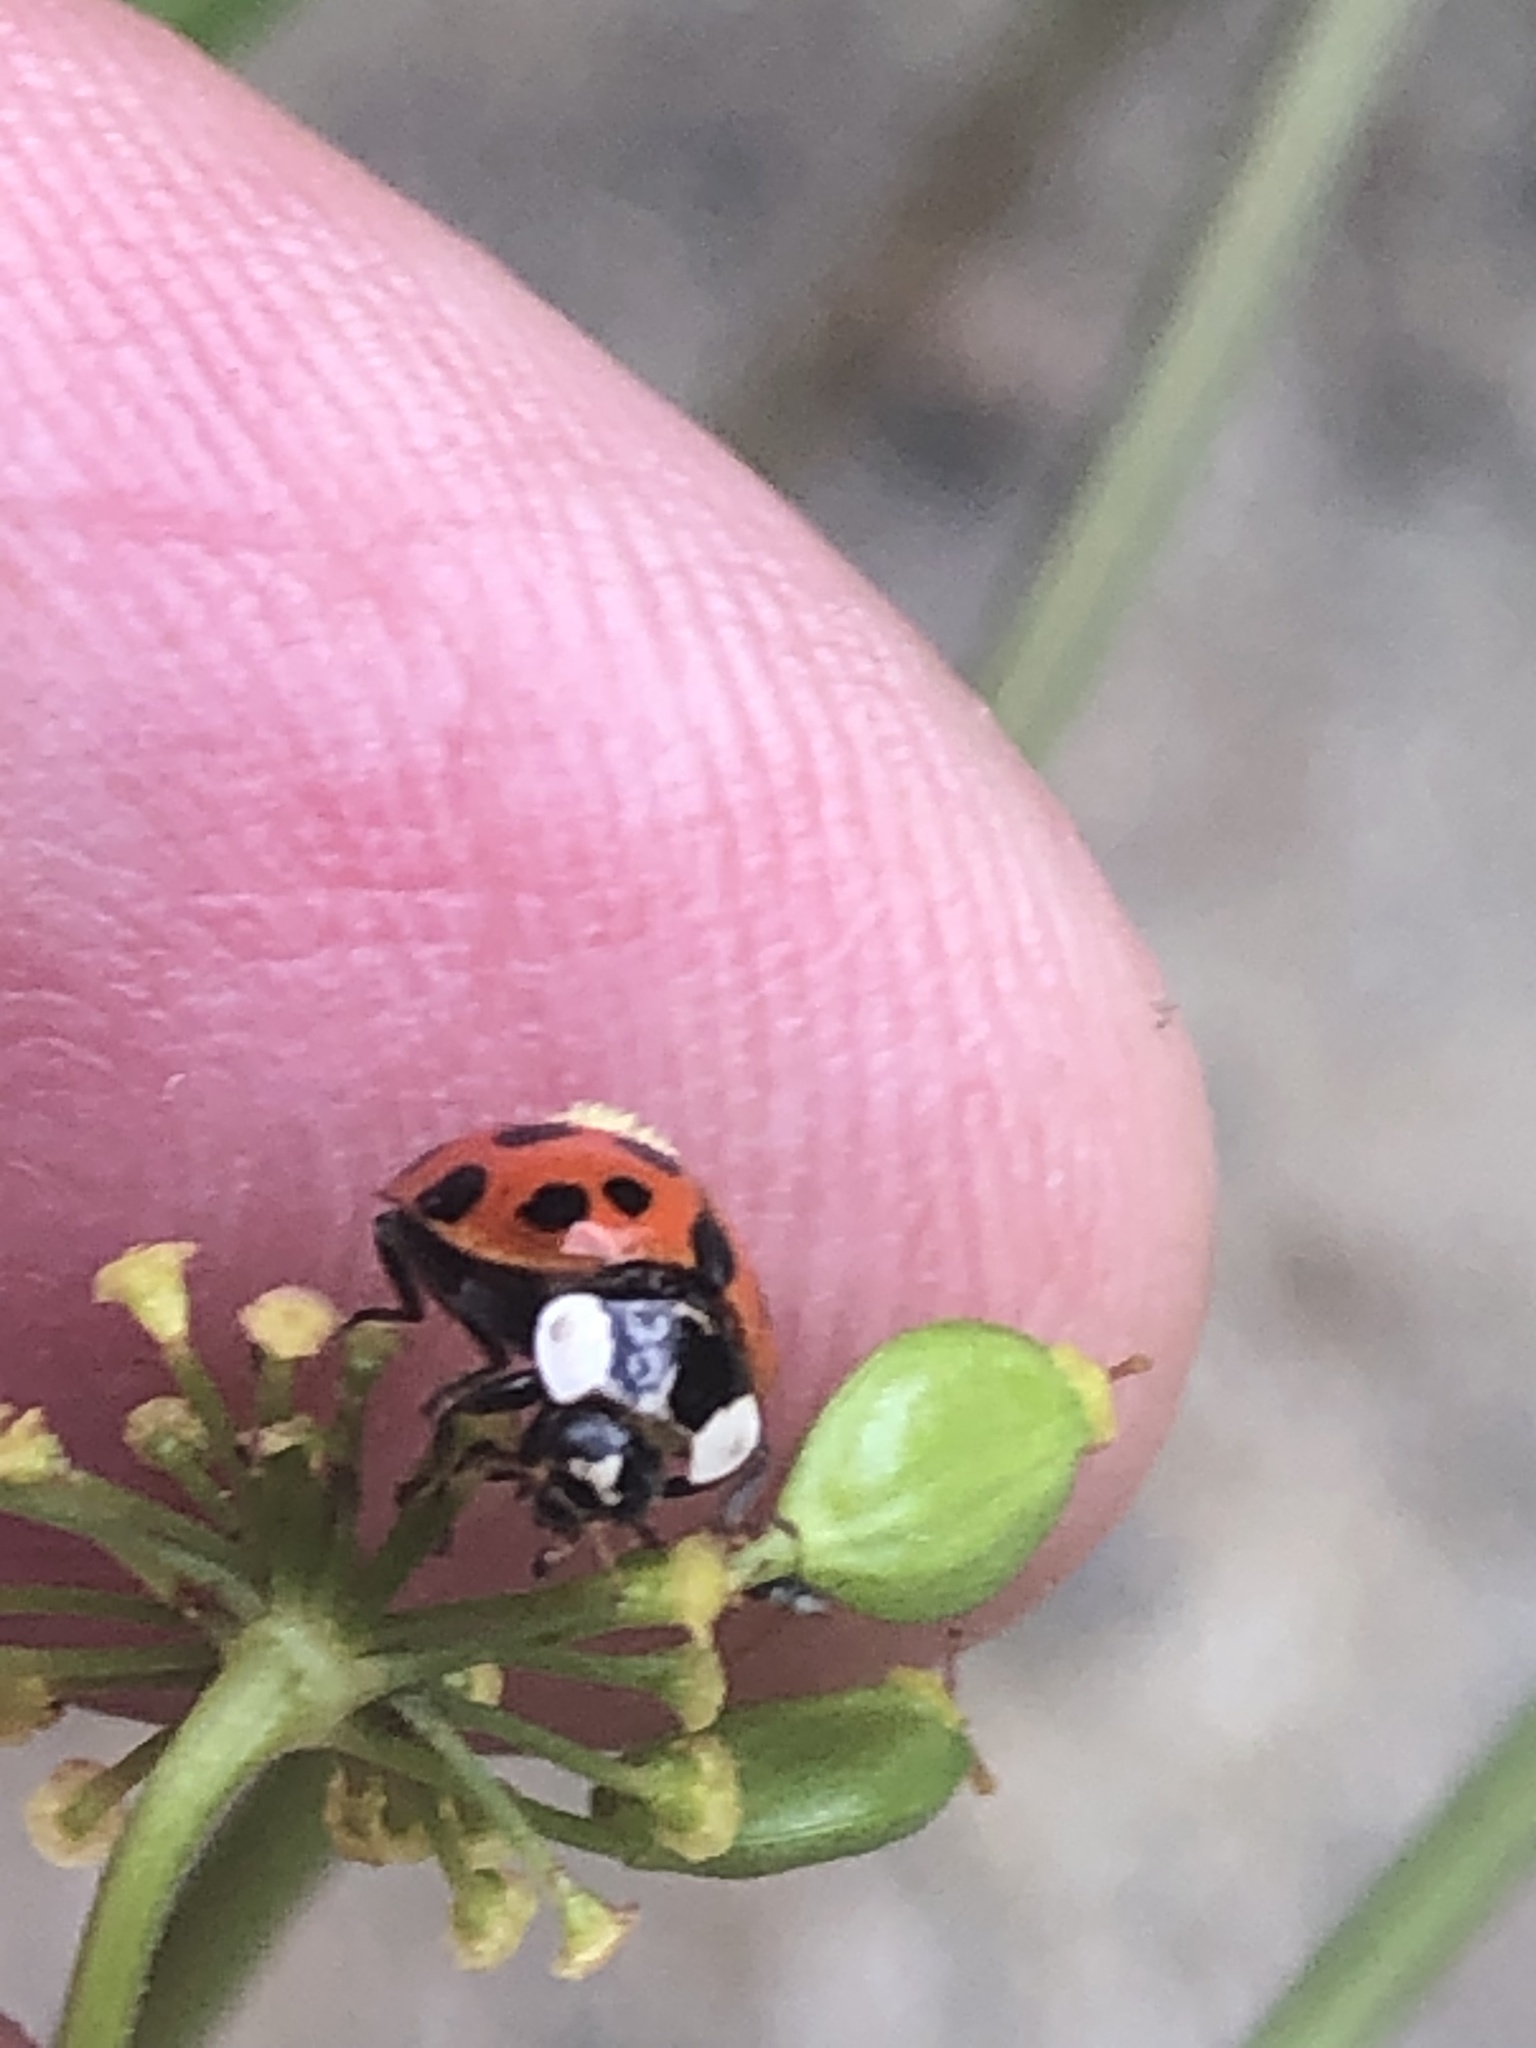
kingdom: Animalia
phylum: Arthropoda
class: Insecta
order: Coleoptera
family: Coccinellidae
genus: Harmonia
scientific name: Harmonia axyridis
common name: Harlequin ladybird
